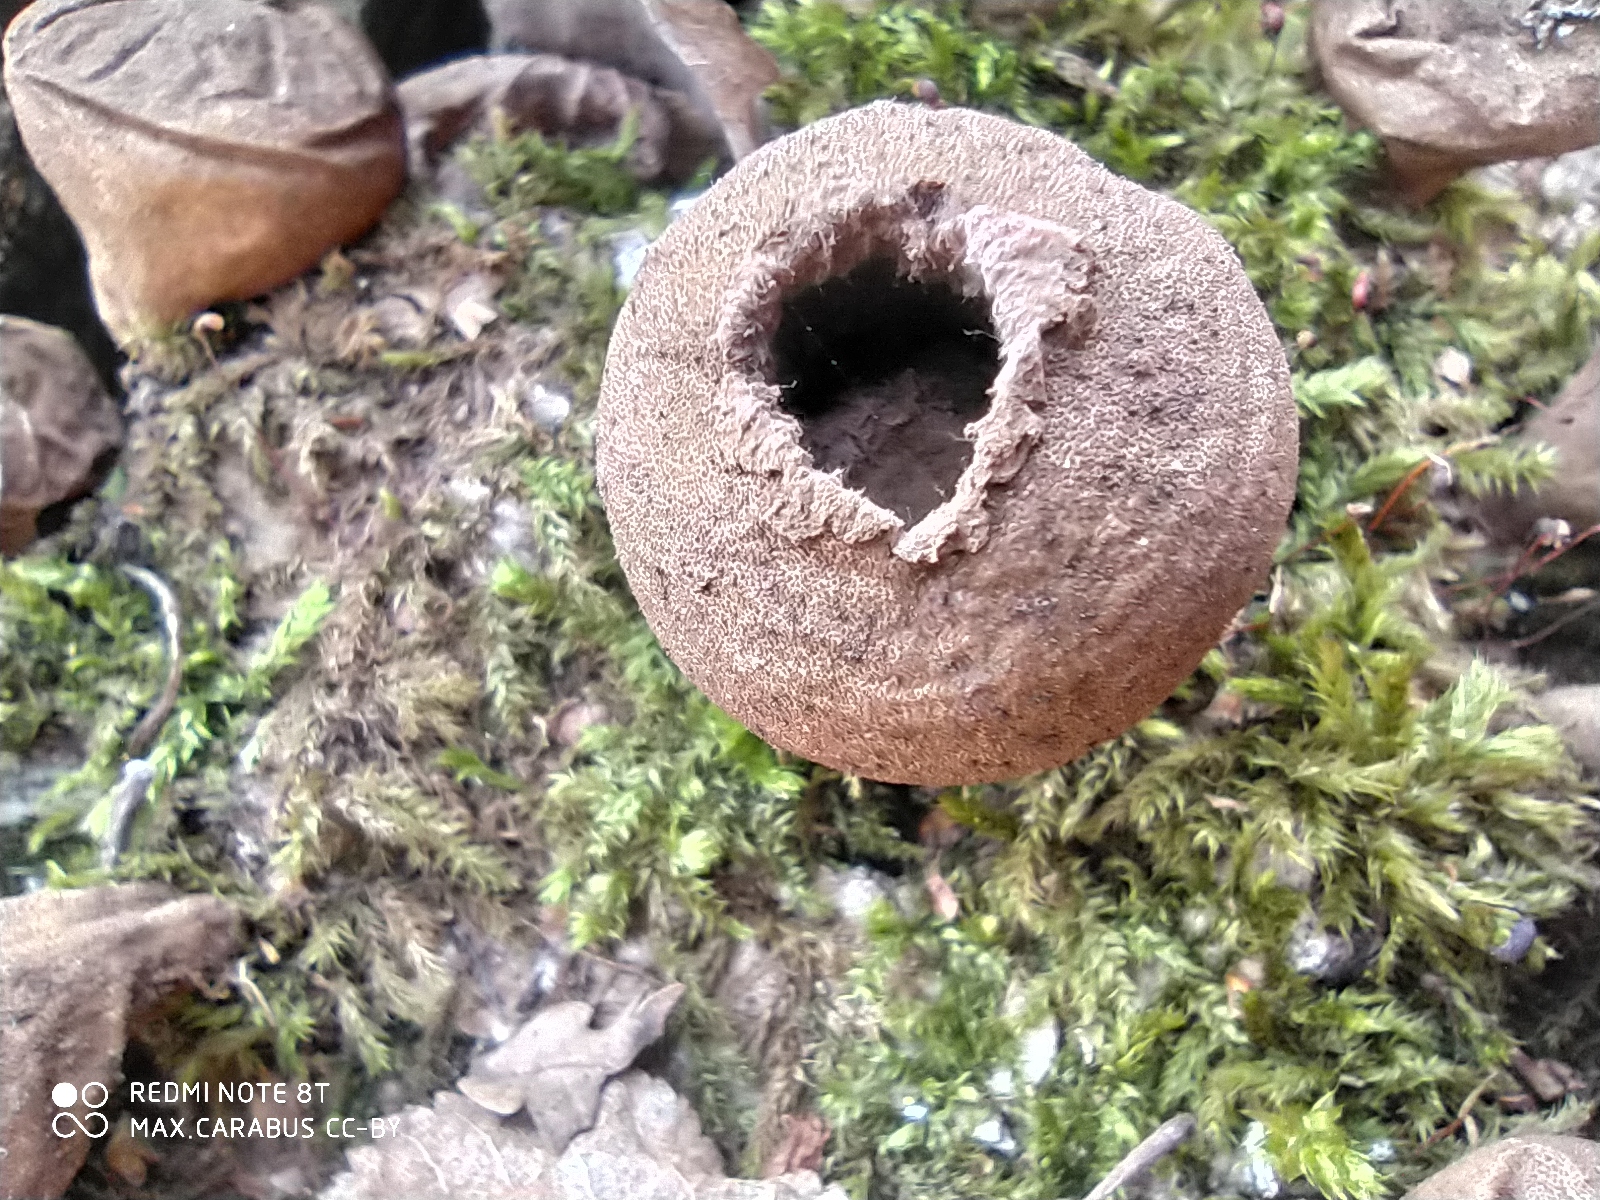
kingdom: Fungi
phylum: Basidiomycota
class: Agaricomycetes
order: Agaricales
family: Lycoperdaceae
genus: Apioperdon
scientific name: Apioperdon pyriforme
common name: Pear-shaped puffball
